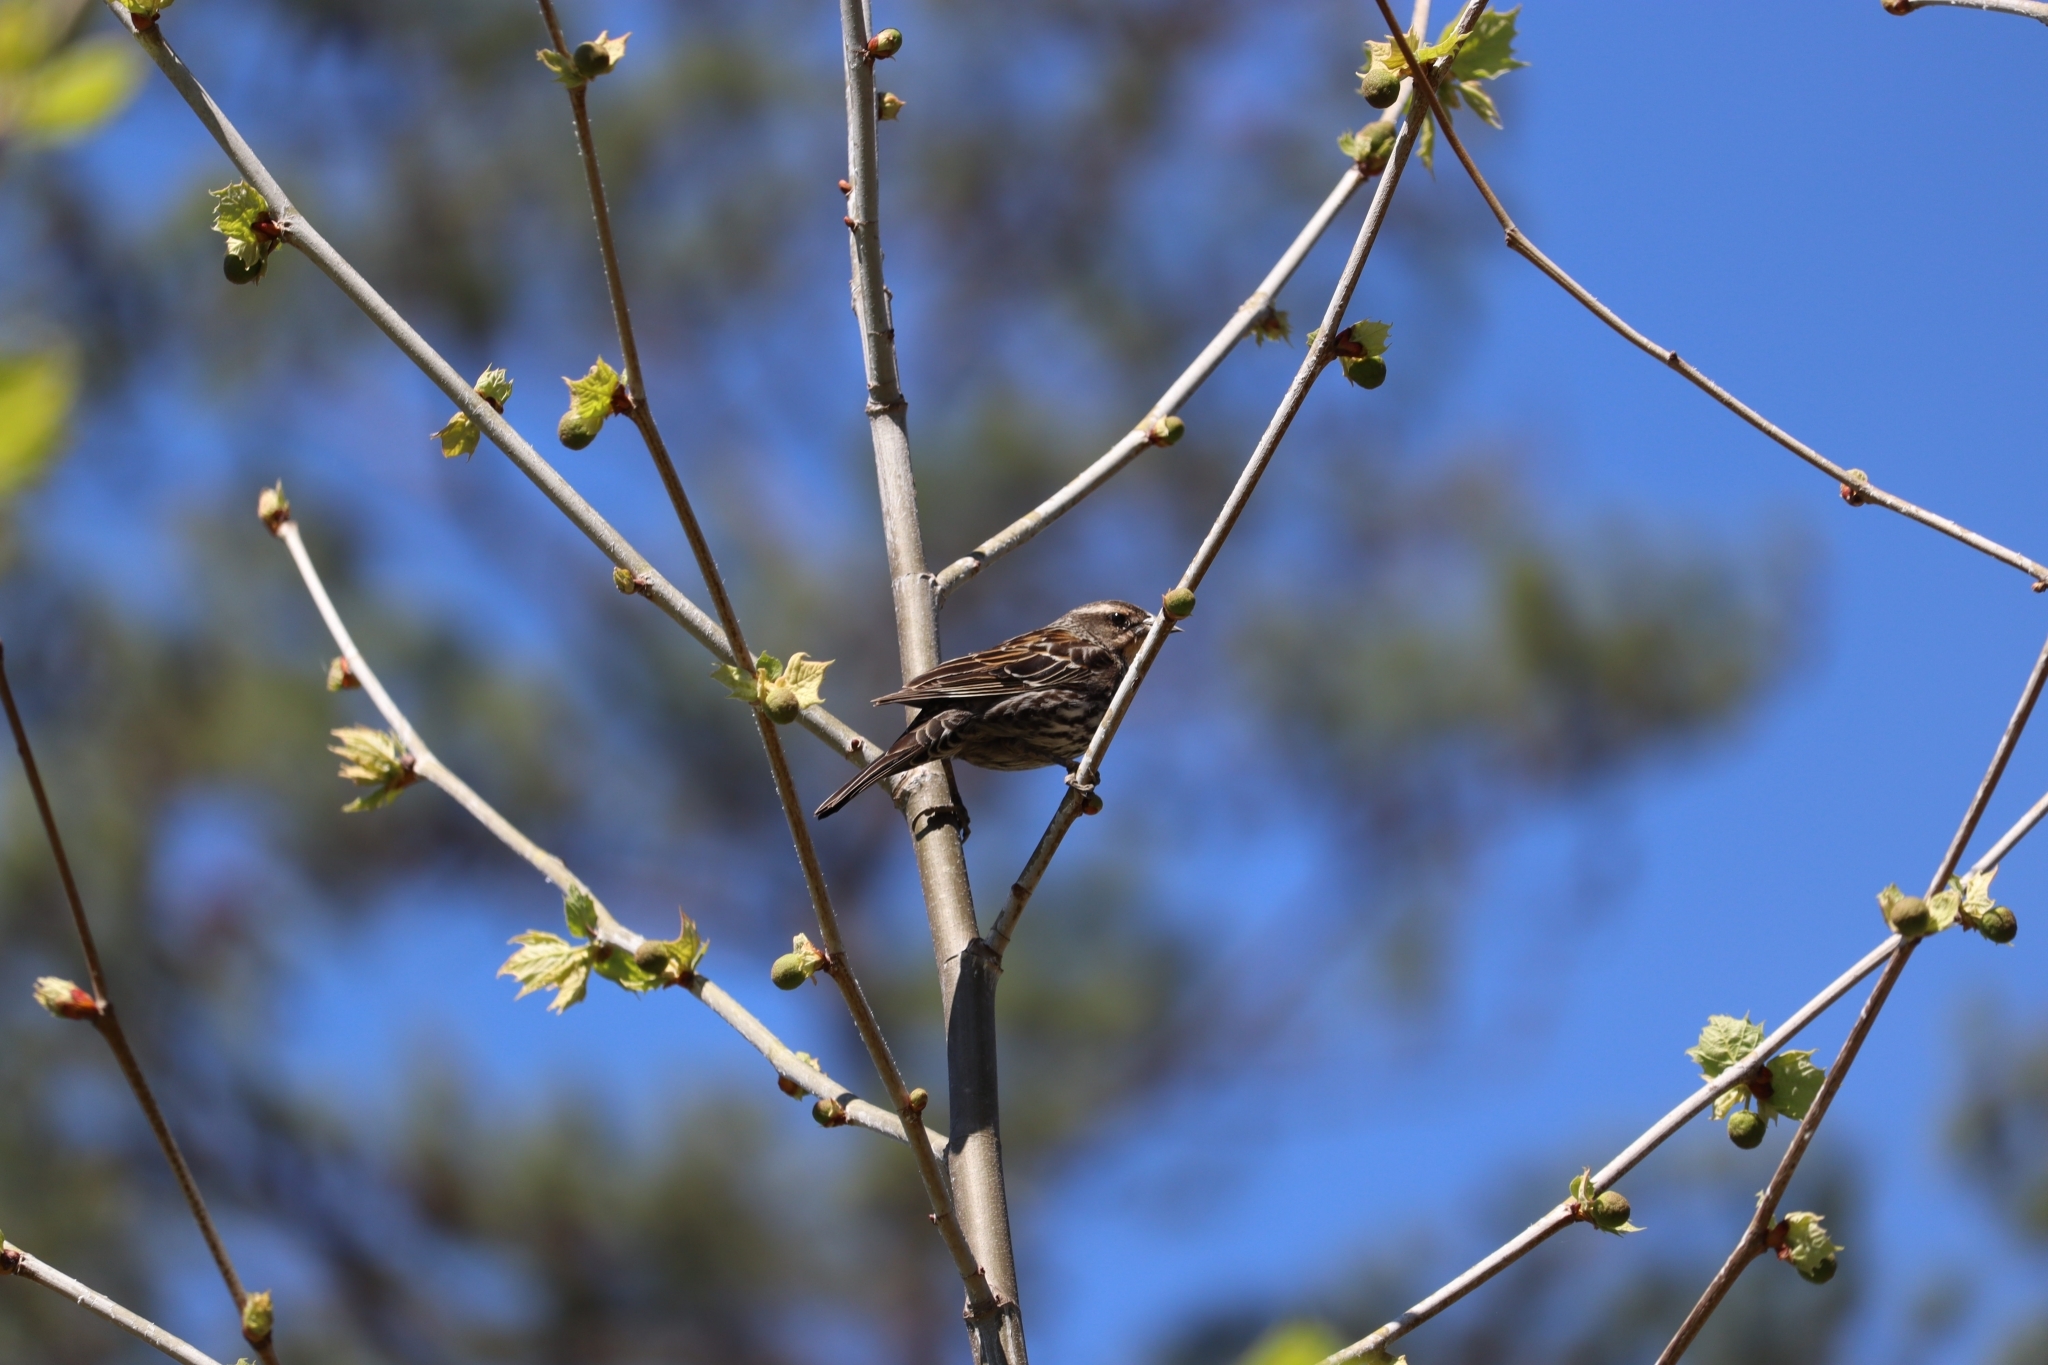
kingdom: Animalia
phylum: Chordata
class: Aves
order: Passeriformes
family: Icteridae
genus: Agelaius
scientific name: Agelaius phoeniceus
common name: Red-winged blackbird
